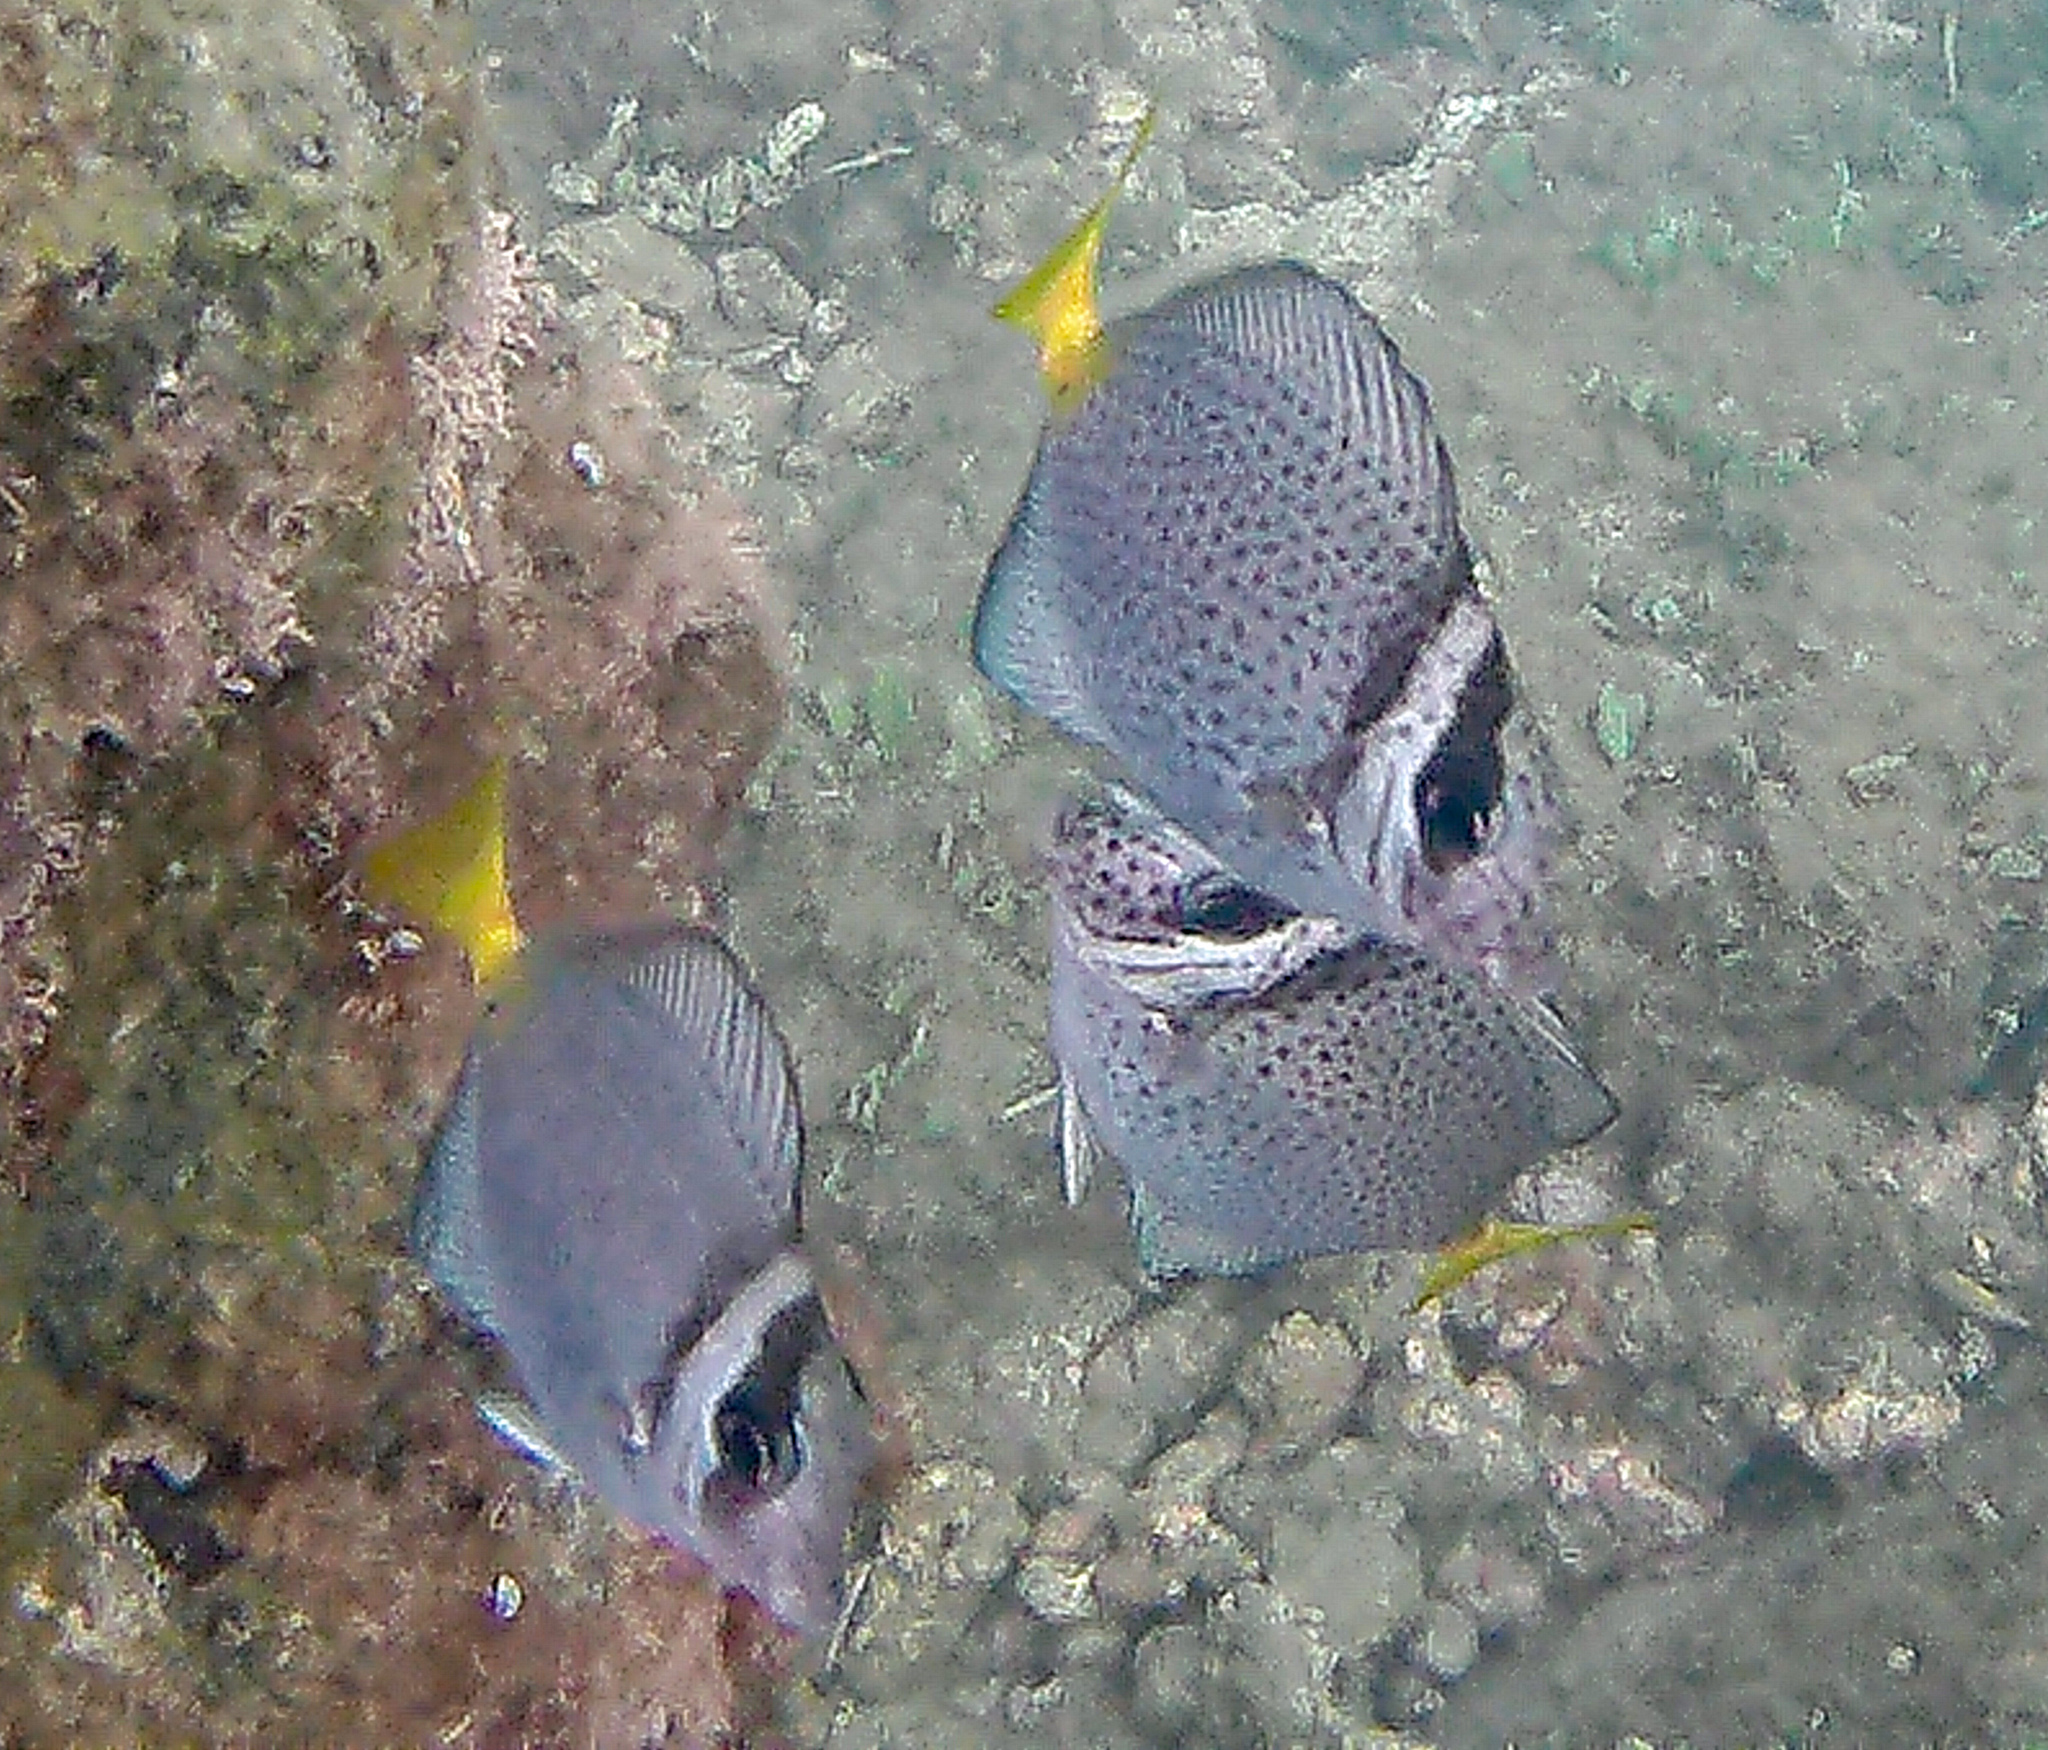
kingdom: Animalia
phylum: Chordata
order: Perciformes
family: Acanthuridae
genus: Prionurus
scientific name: Prionurus laticlavius
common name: Razor surgeonfish
